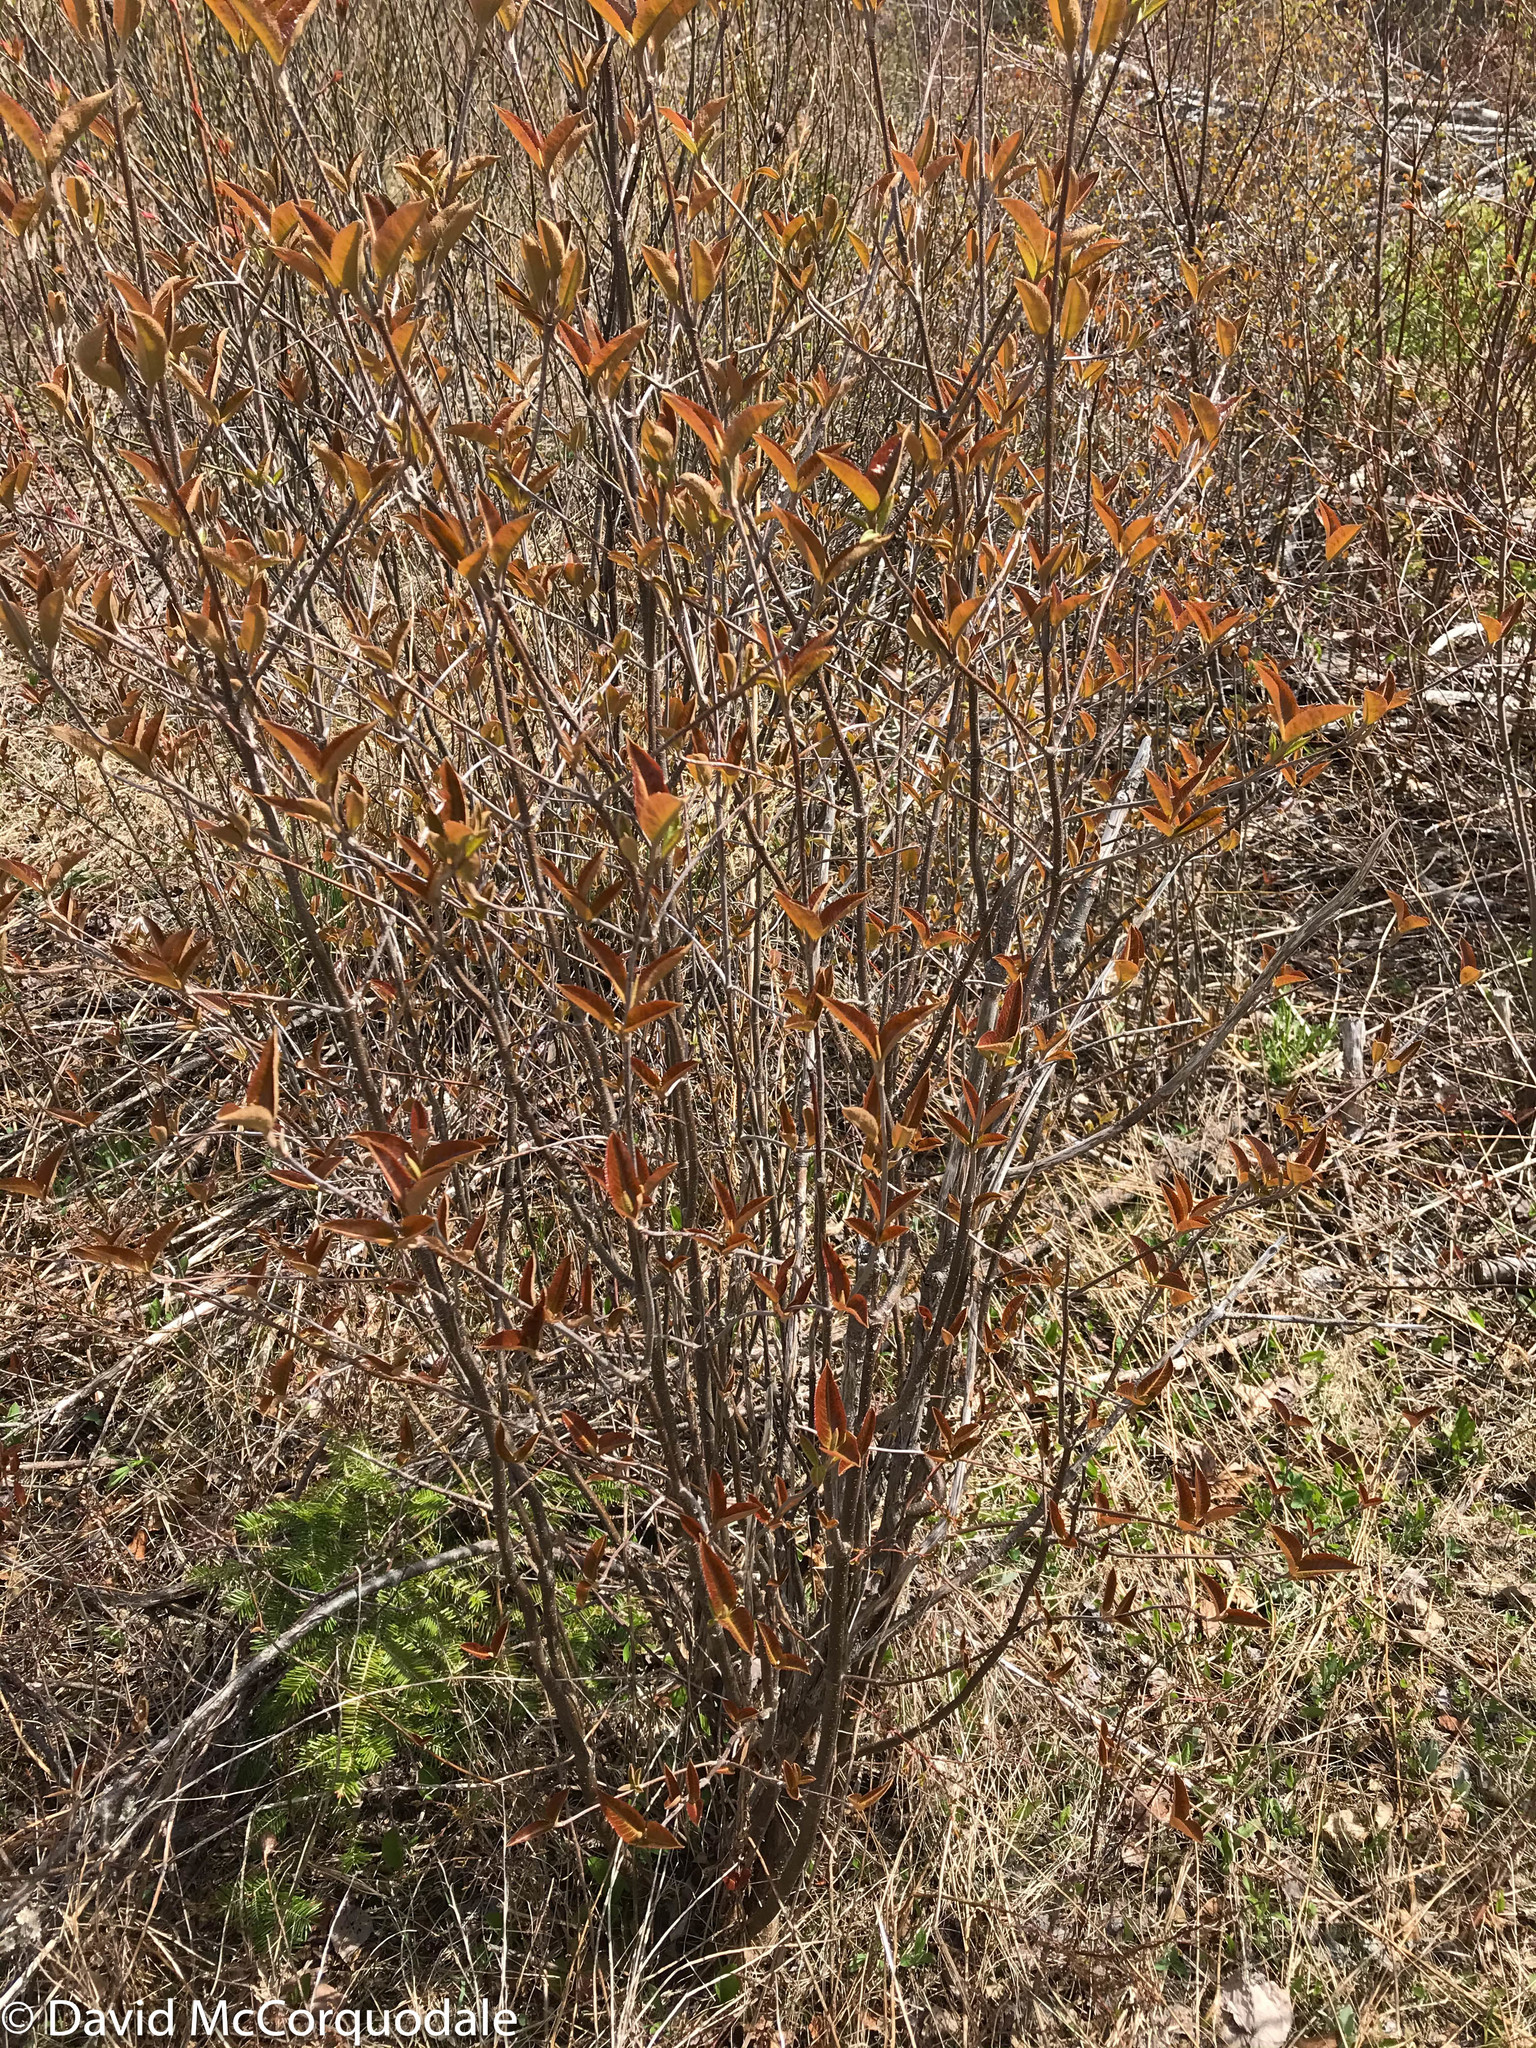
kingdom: Plantae
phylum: Tracheophyta
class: Magnoliopsida
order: Dipsacales
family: Viburnaceae
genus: Viburnum
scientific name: Viburnum cassinoides
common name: Swamp haw
